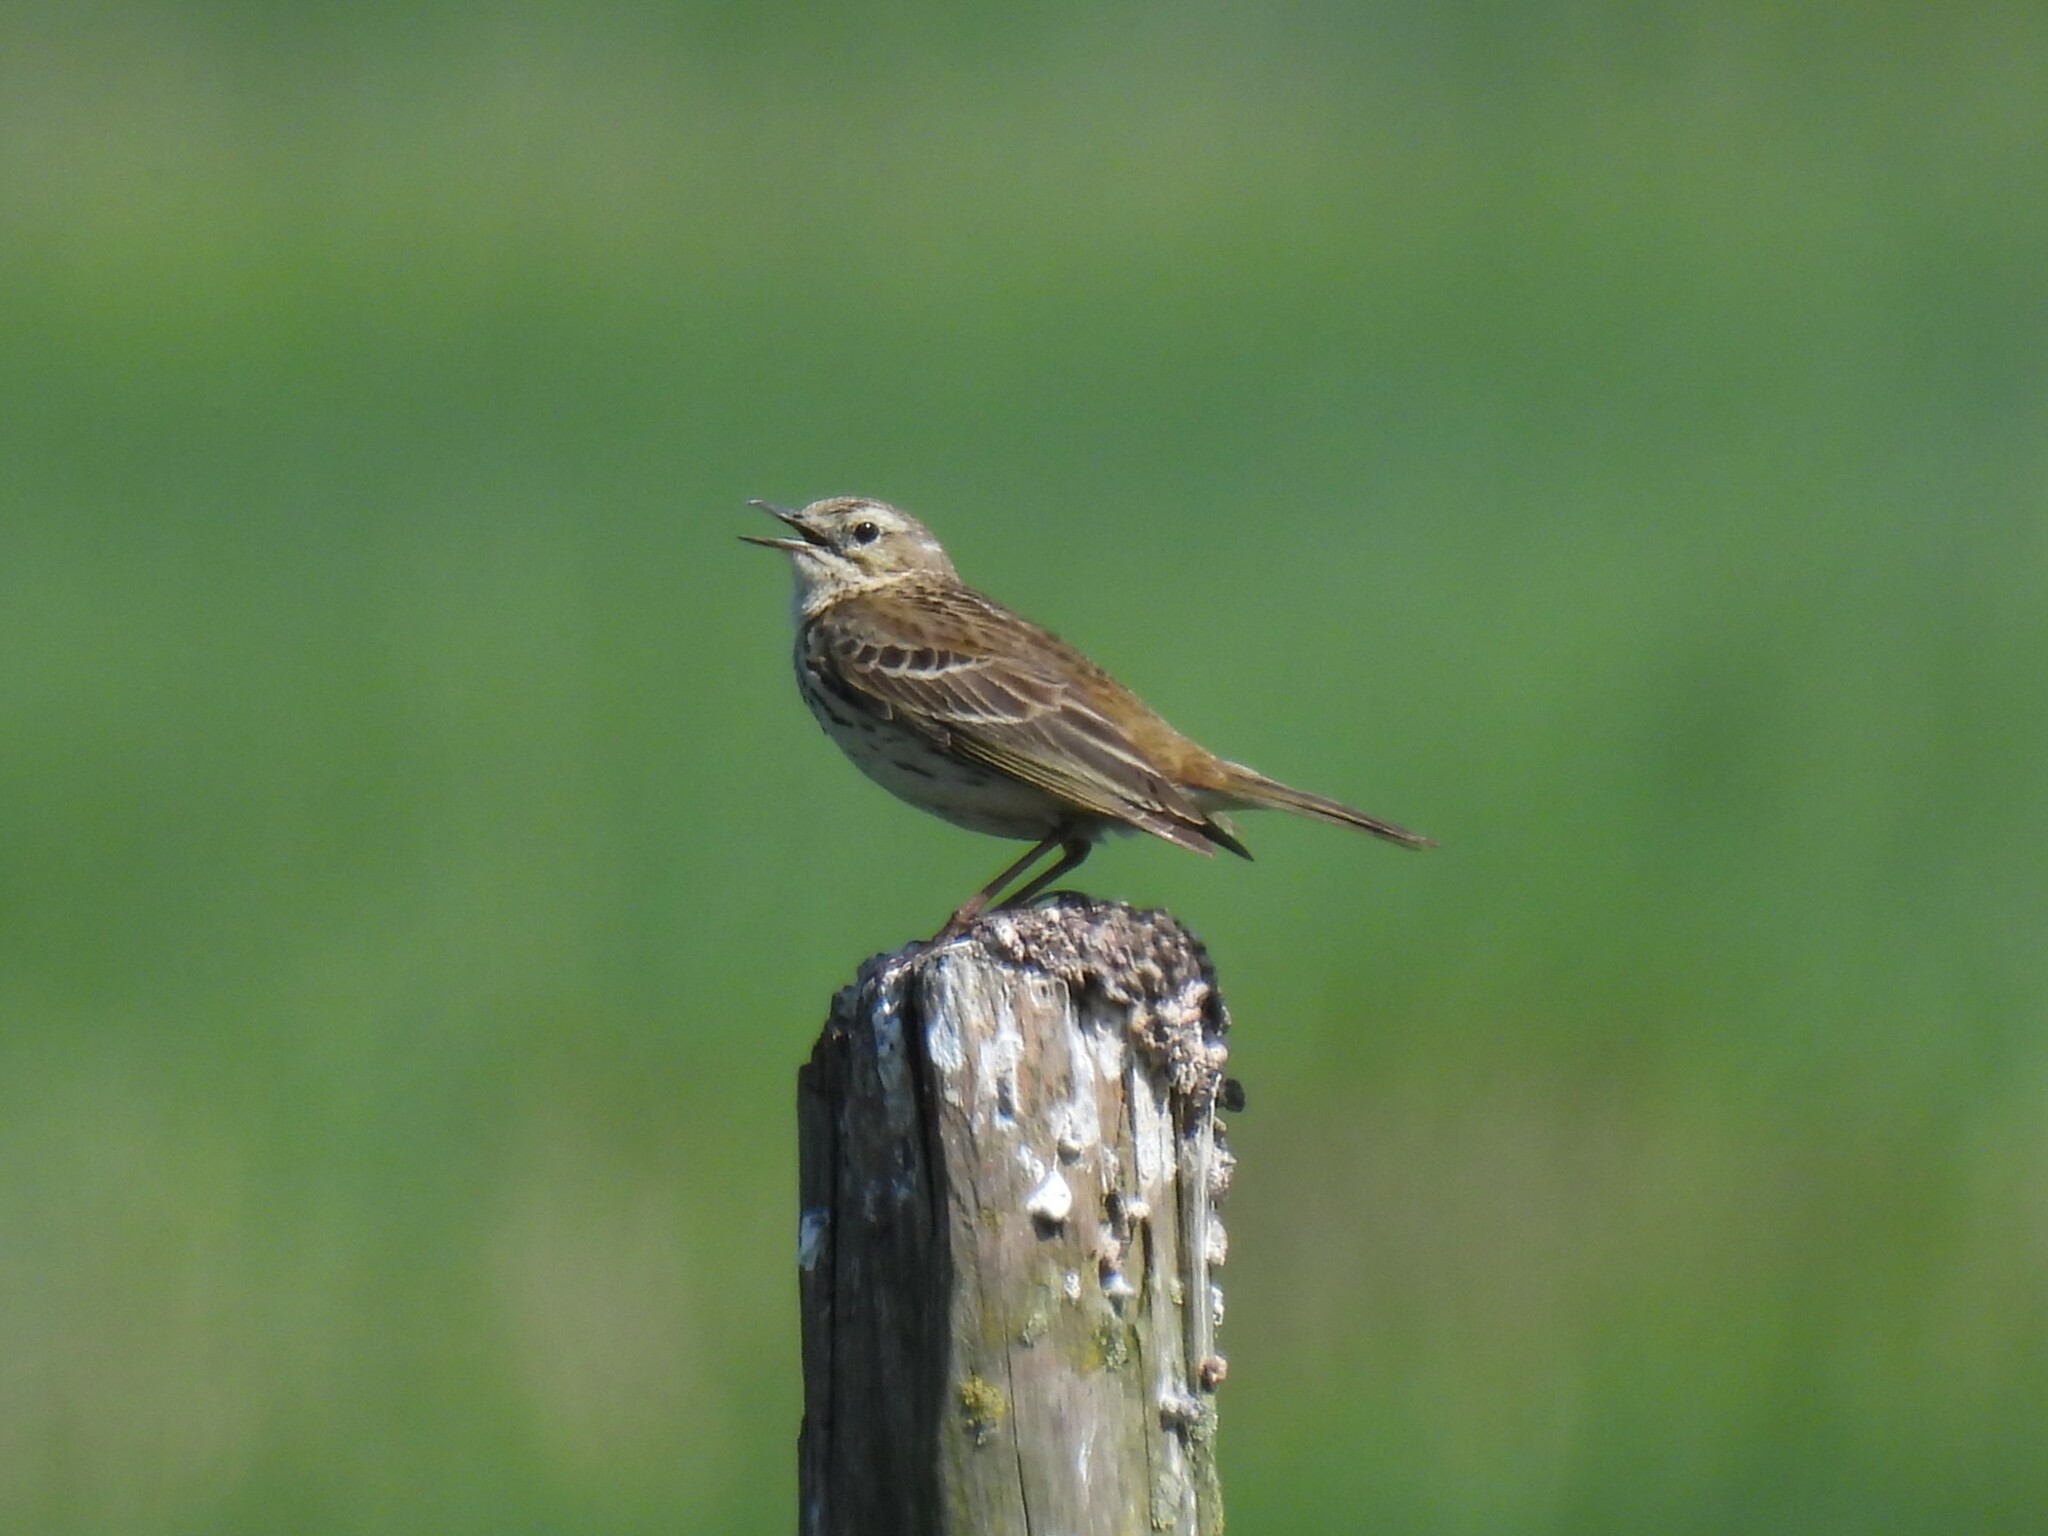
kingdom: Animalia
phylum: Chordata
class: Aves
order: Passeriformes
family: Motacillidae
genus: Anthus
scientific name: Anthus pratensis
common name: Meadow pipit
